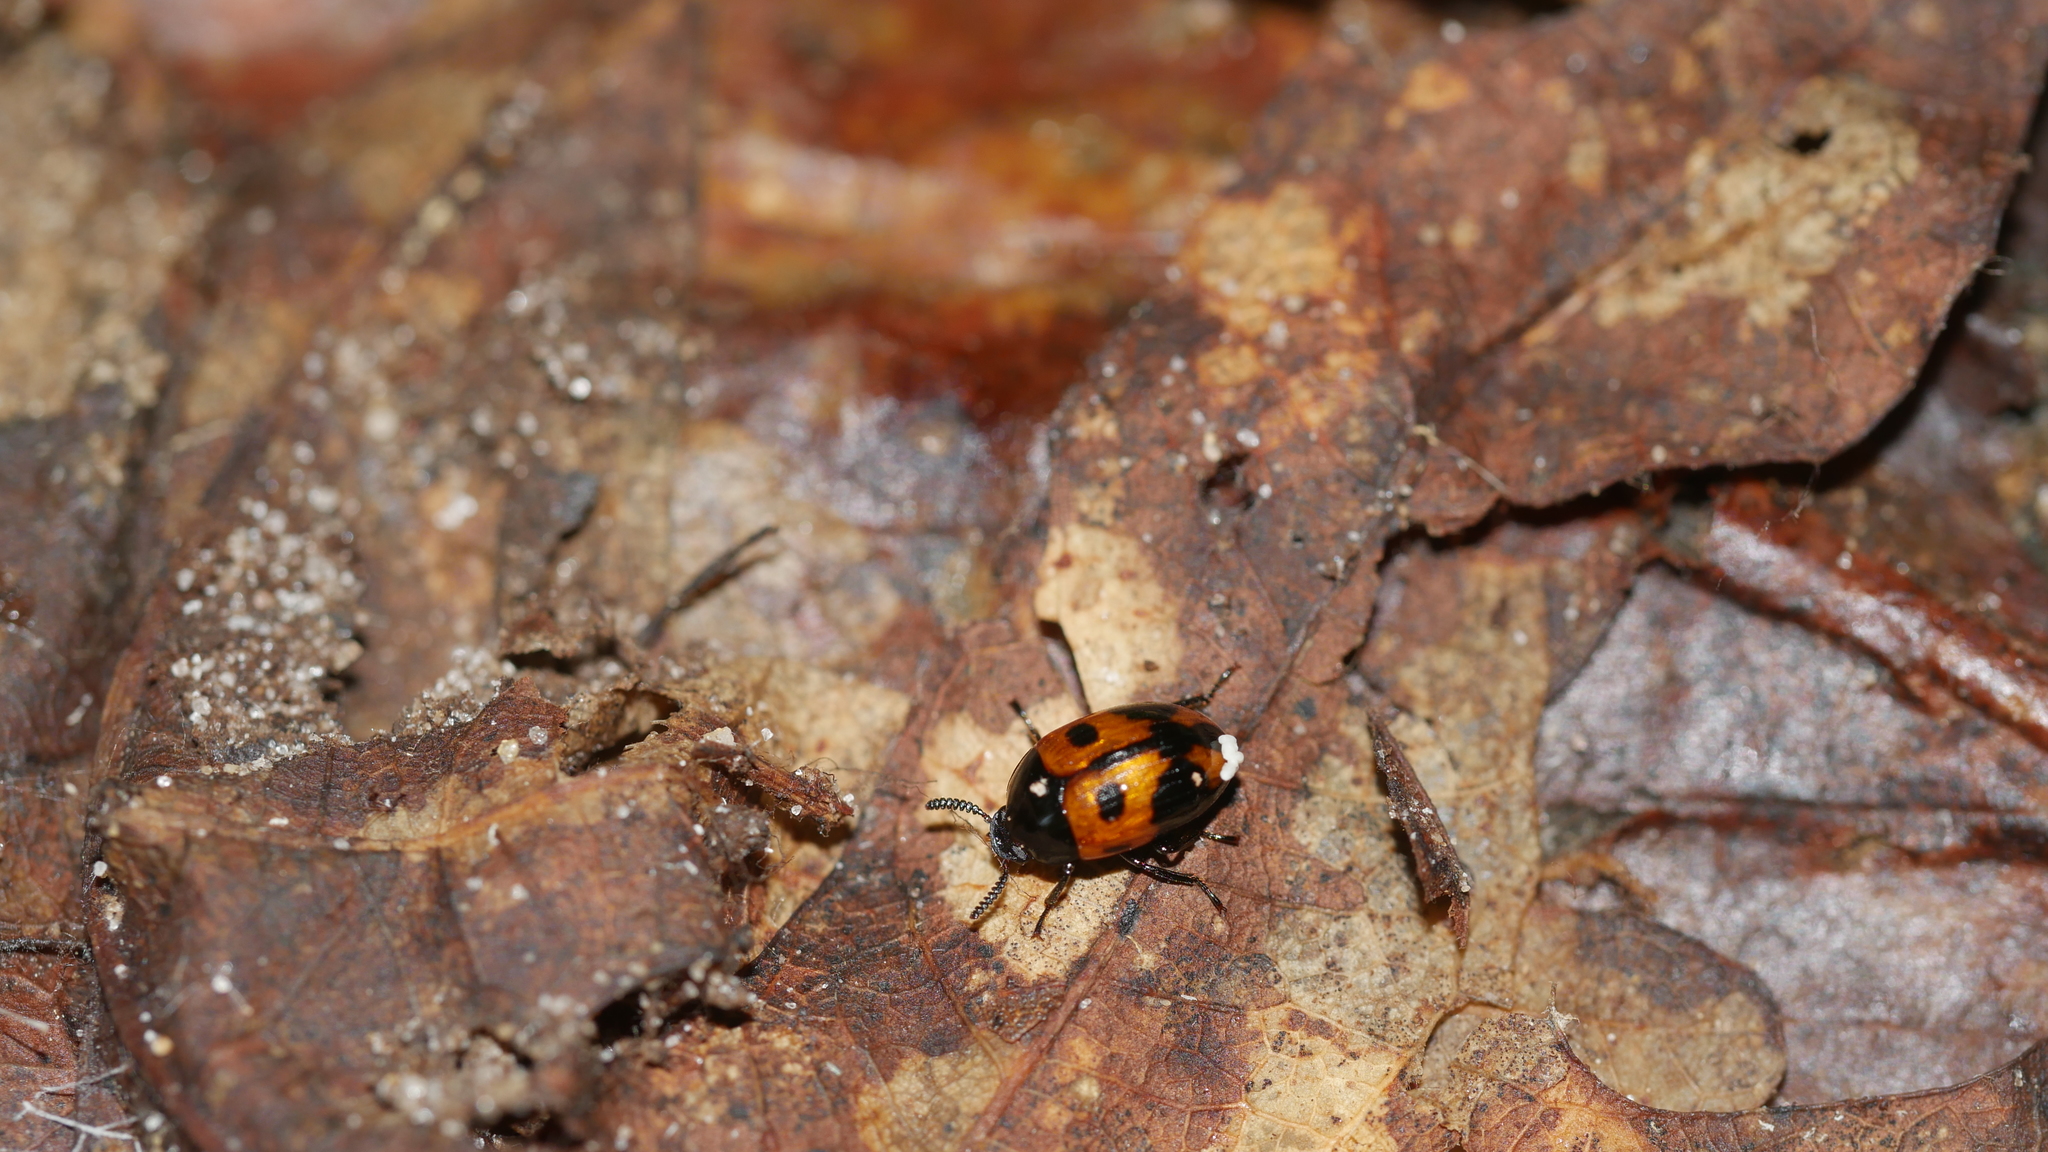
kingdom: Animalia
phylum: Arthropoda
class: Insecta
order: Coleoptera
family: Tenebrionidae
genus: Diaperis
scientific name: Diaperis maculata
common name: Darkling beetle
